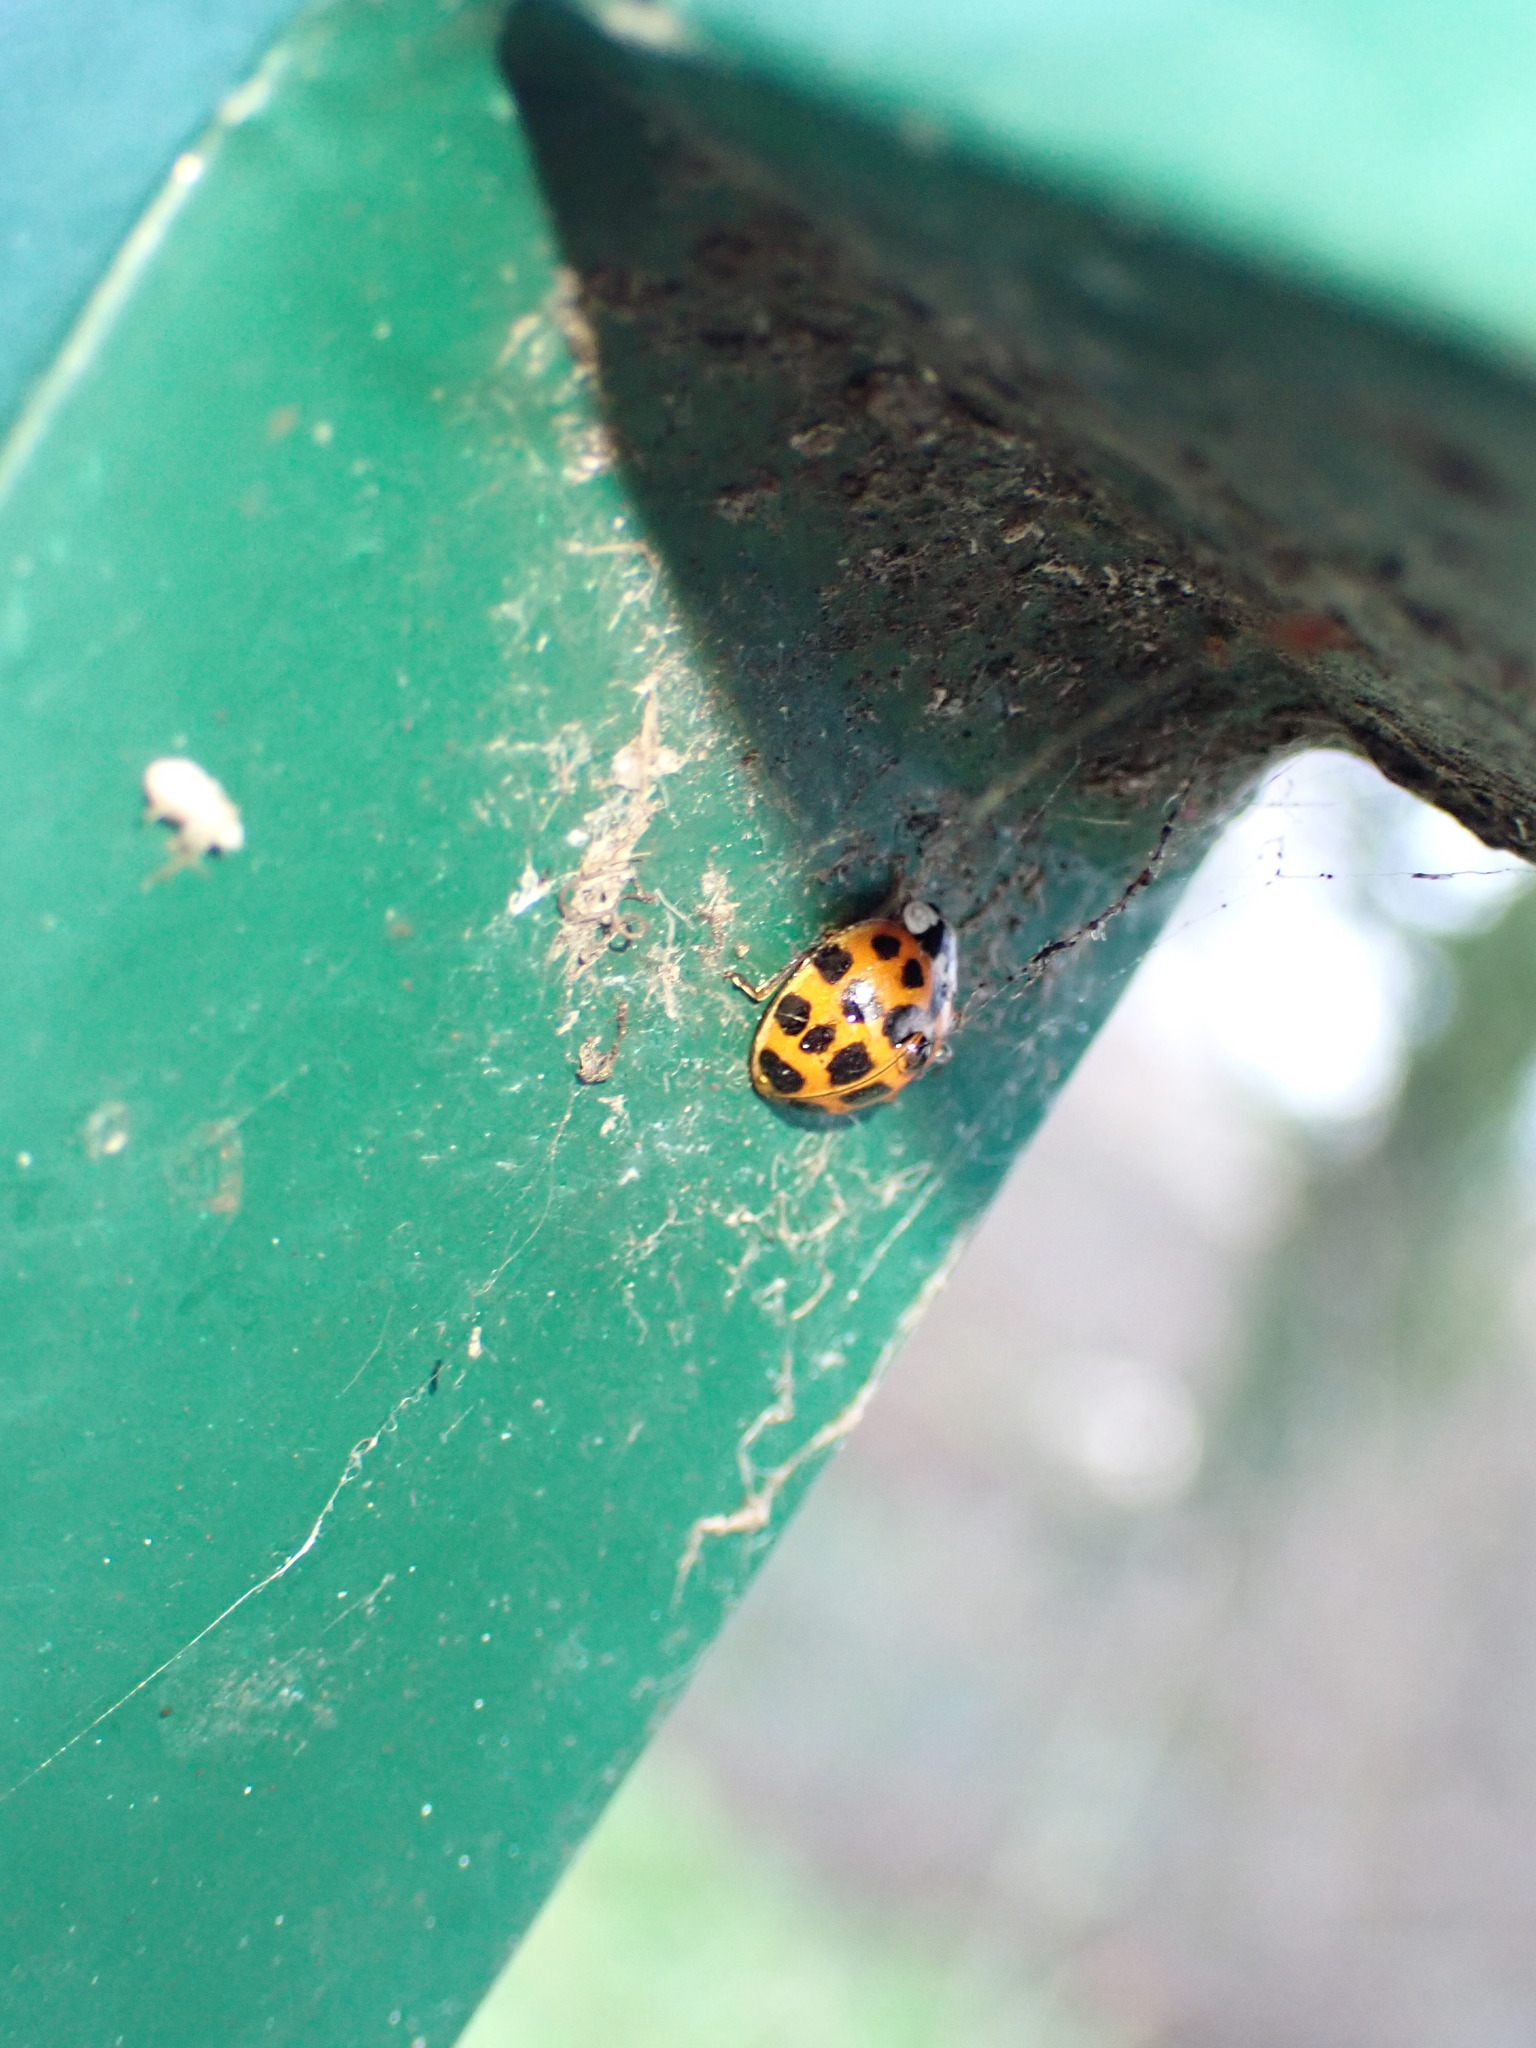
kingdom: Animalia
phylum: Arthropoda
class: Insecta
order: Coleoptera
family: Coccinellidae
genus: Harmonia
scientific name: Harmonia axyridis
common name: Harlequin ladybird
